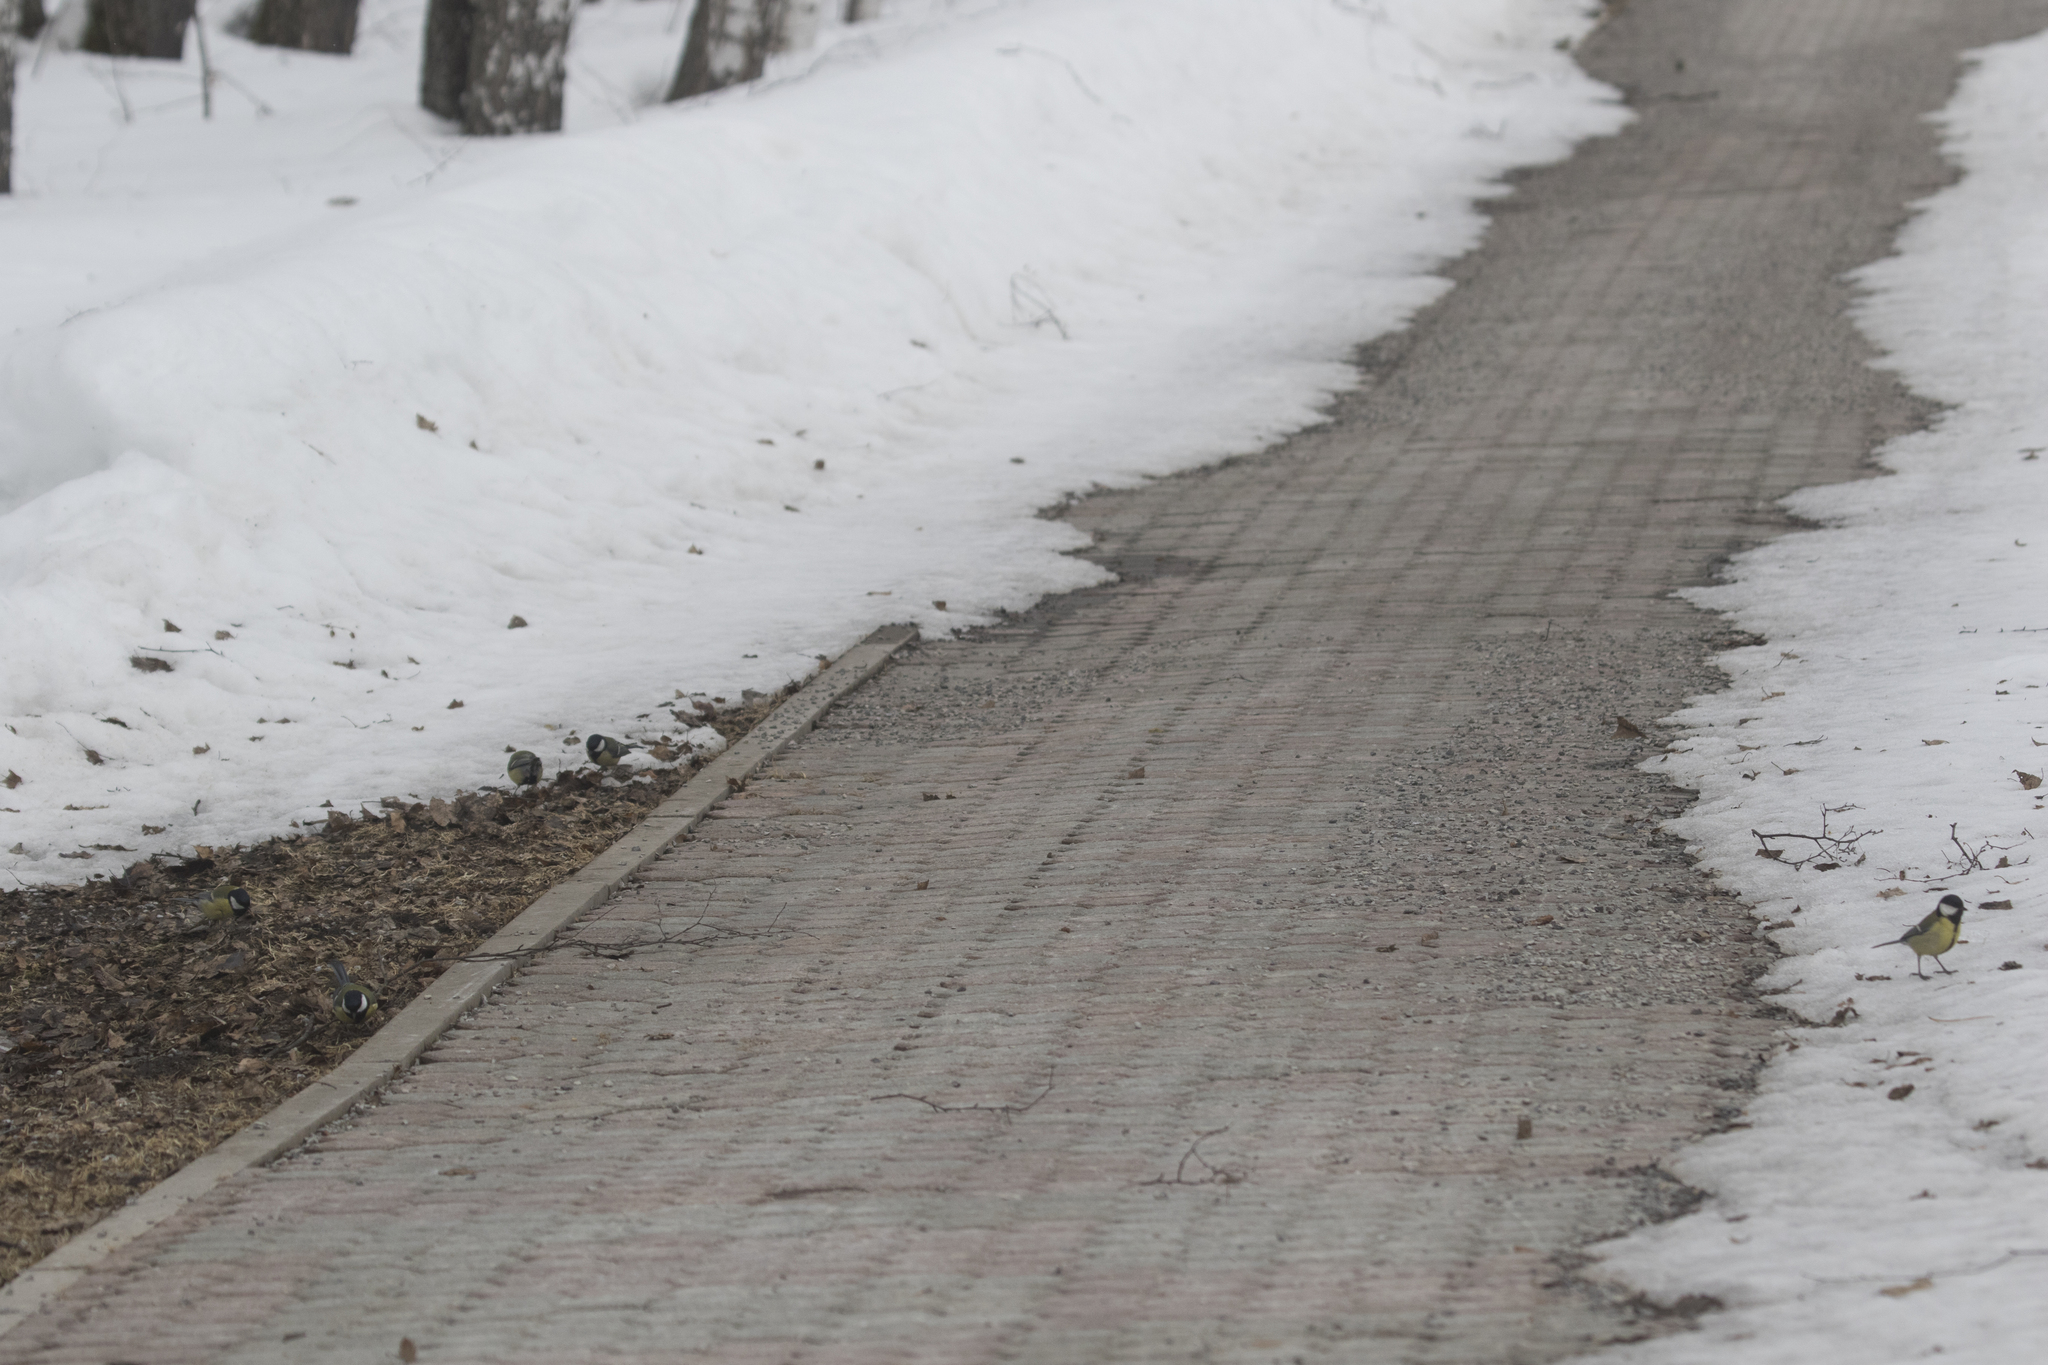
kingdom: Animalia
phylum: Chordata
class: Aves
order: Passeriformes
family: Paridae
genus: Parus
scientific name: Parus major
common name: Great tit
